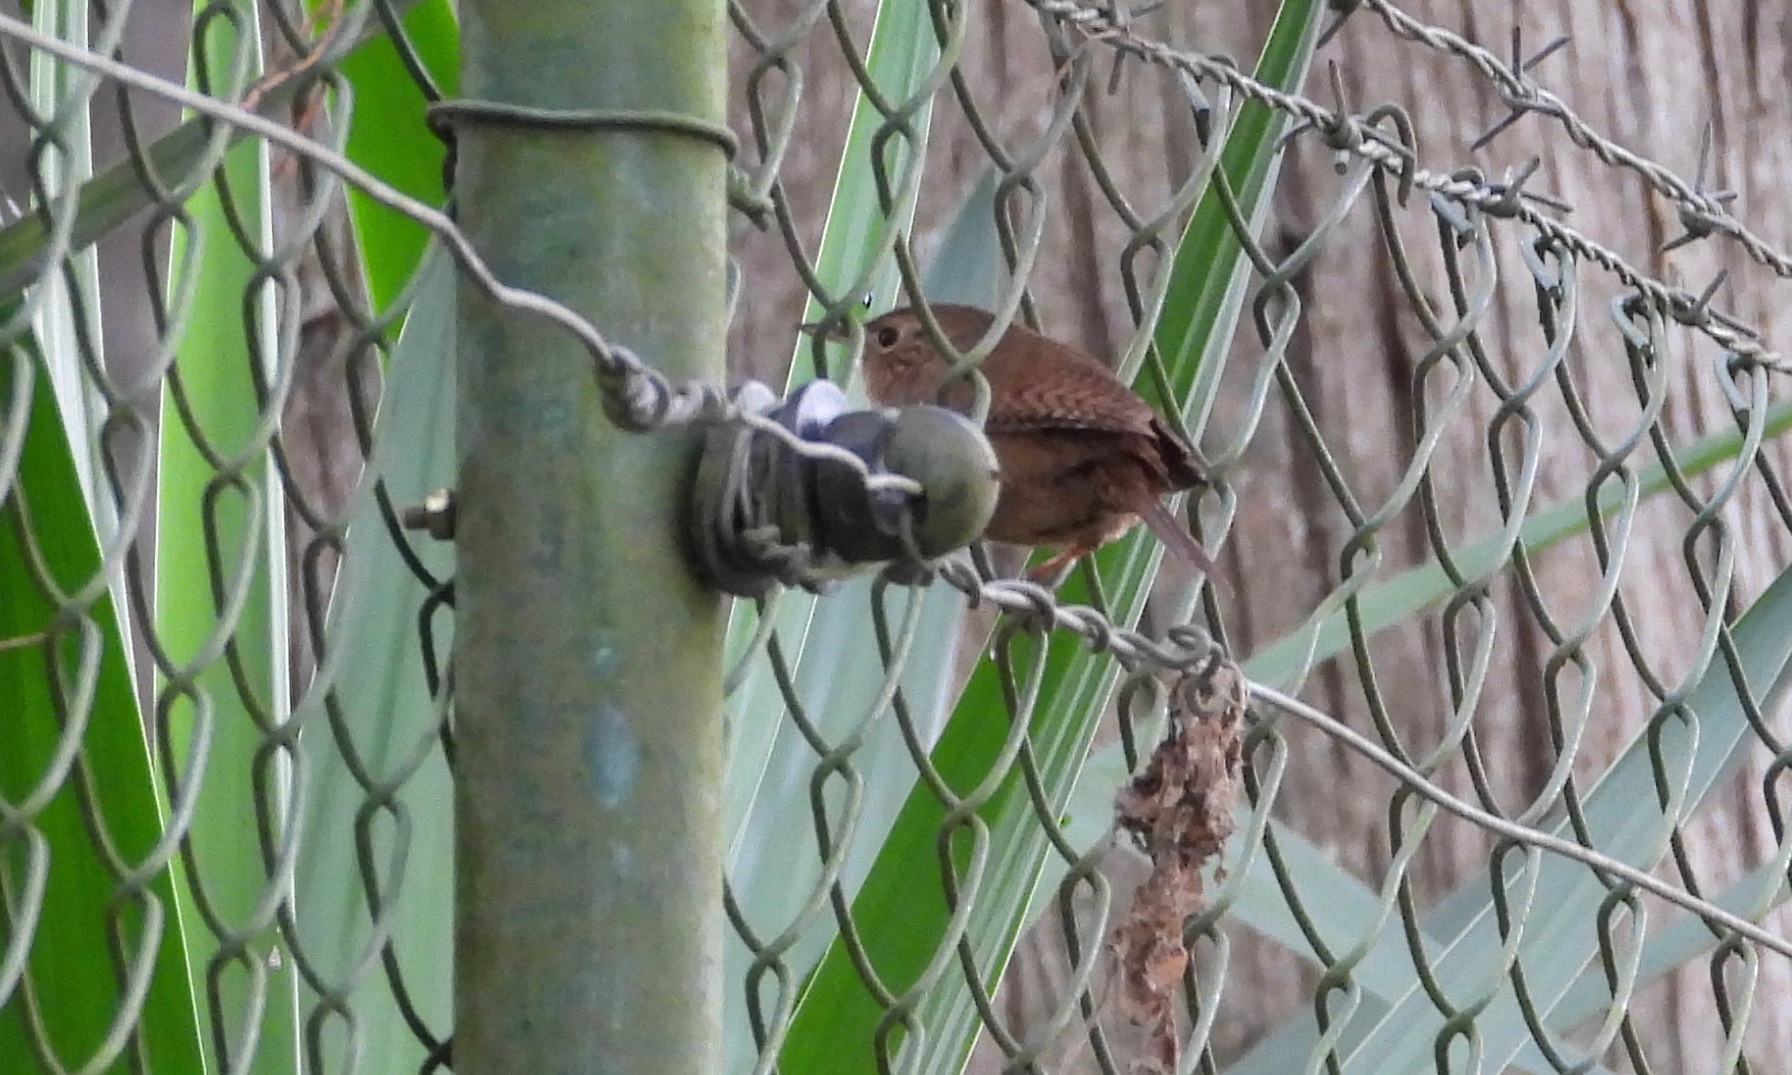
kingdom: Animalia
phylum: Chordata
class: Aves
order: Passeriformes
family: Troglodytidae
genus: Troglodytes
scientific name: Troglodytes aedon
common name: House wren
